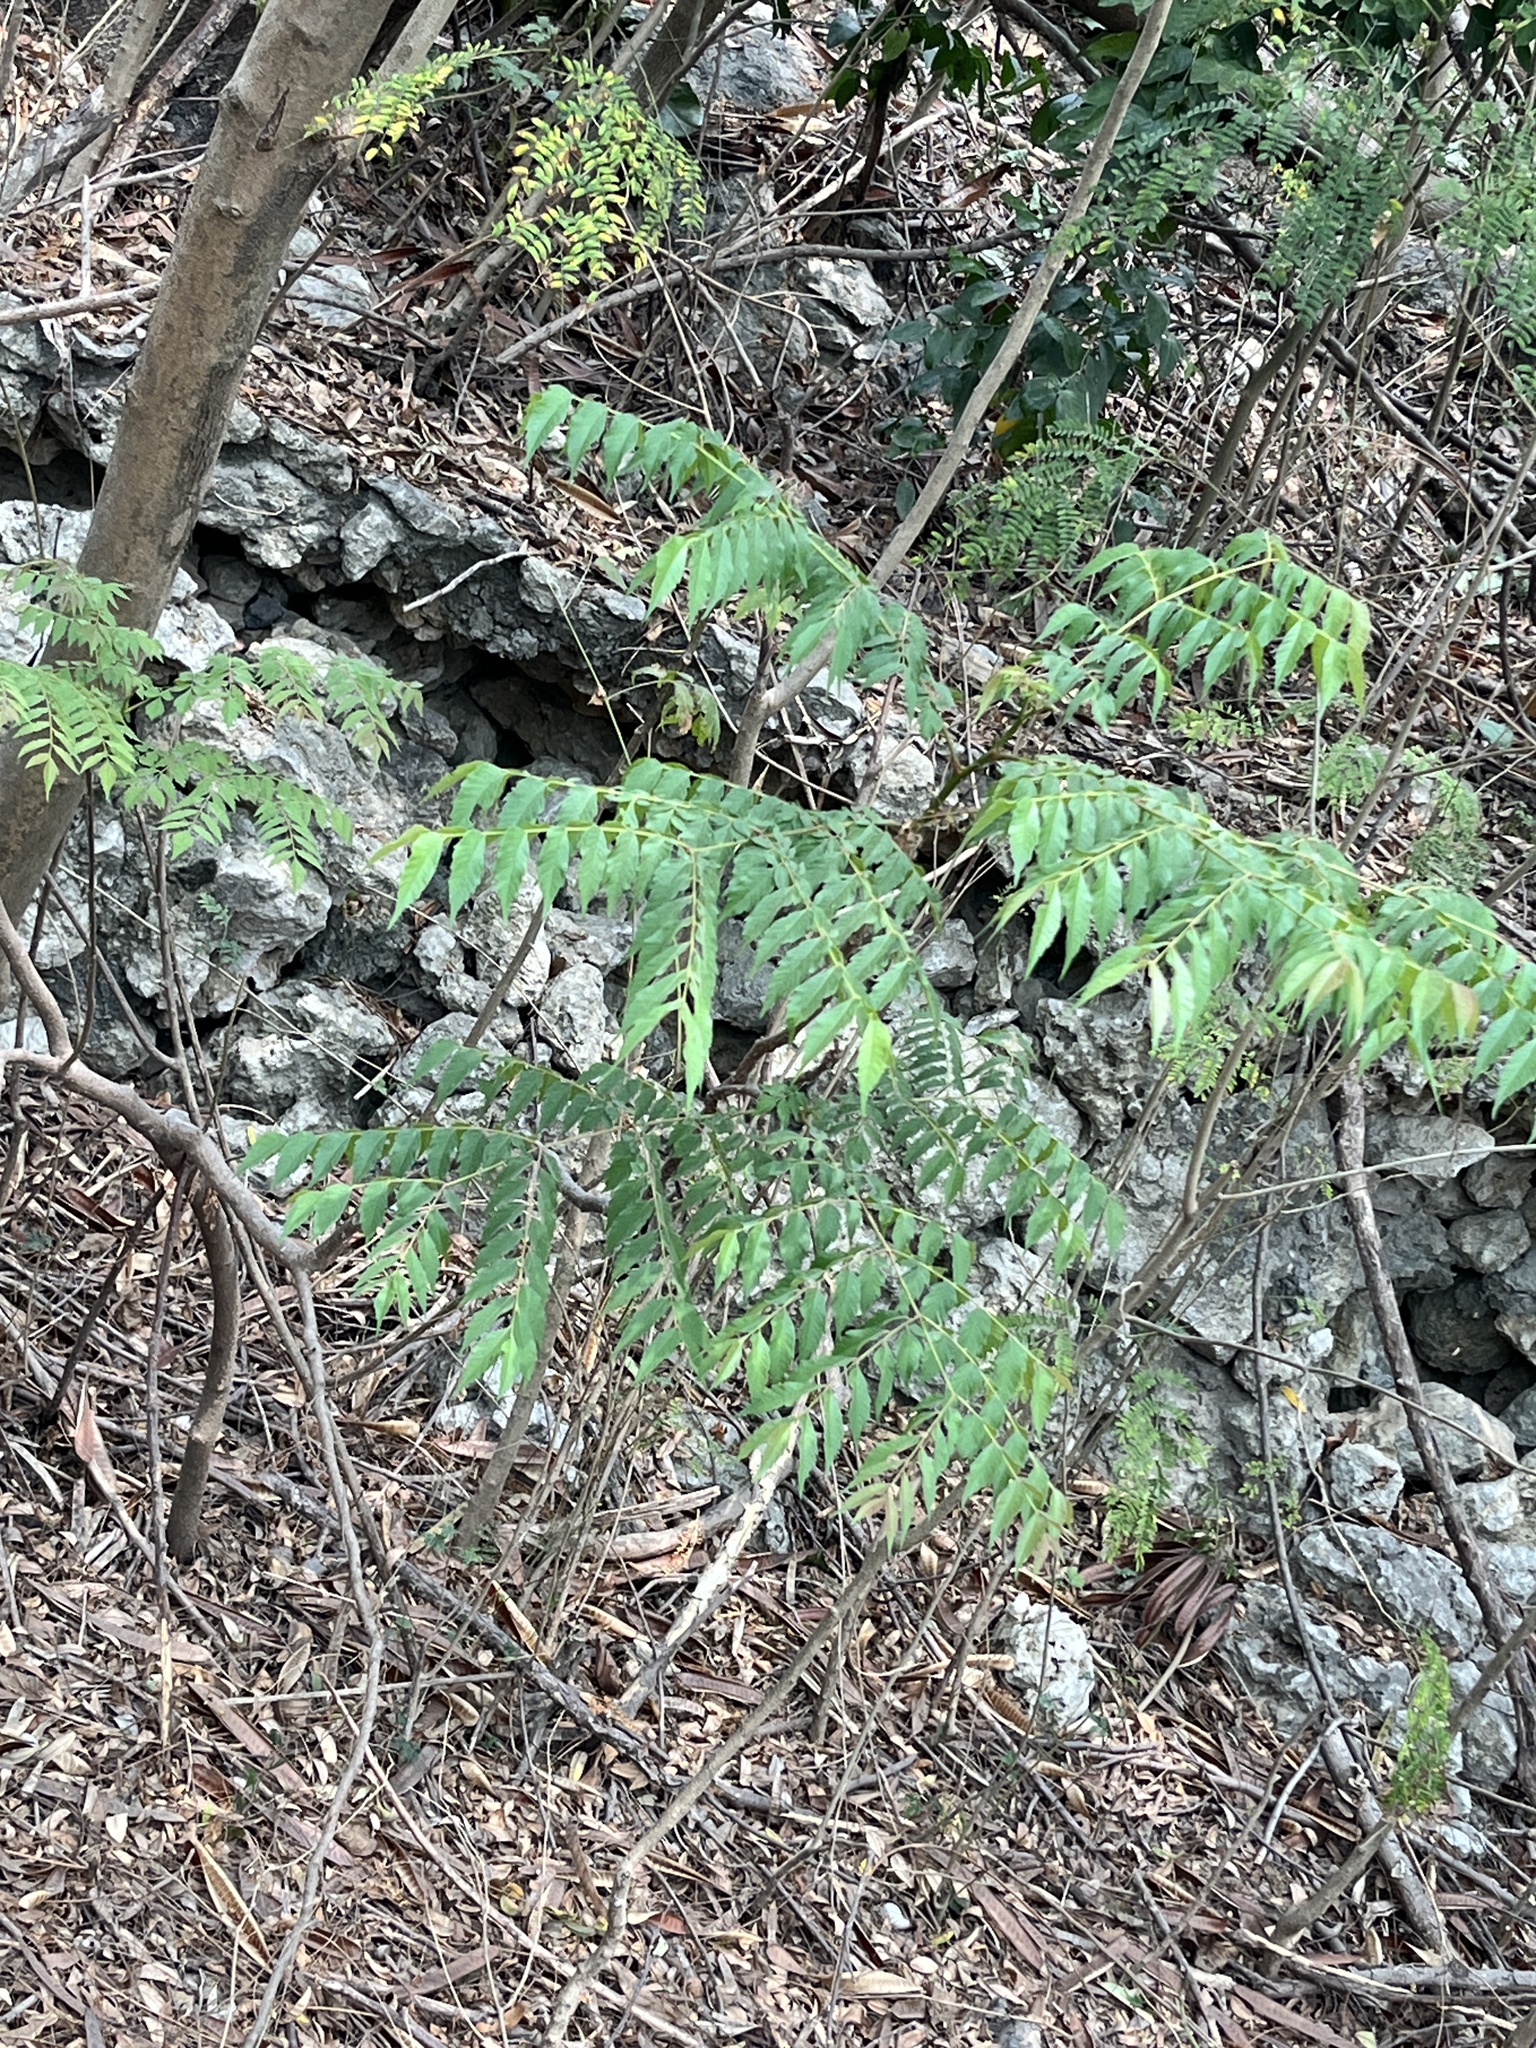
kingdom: Plantae
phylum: Tracheophyta
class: Magnoliopsida
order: Sapindales
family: Sapindaceae
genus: Koelreuteria
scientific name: Koelreuteria elegans
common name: Chinese flame tree
